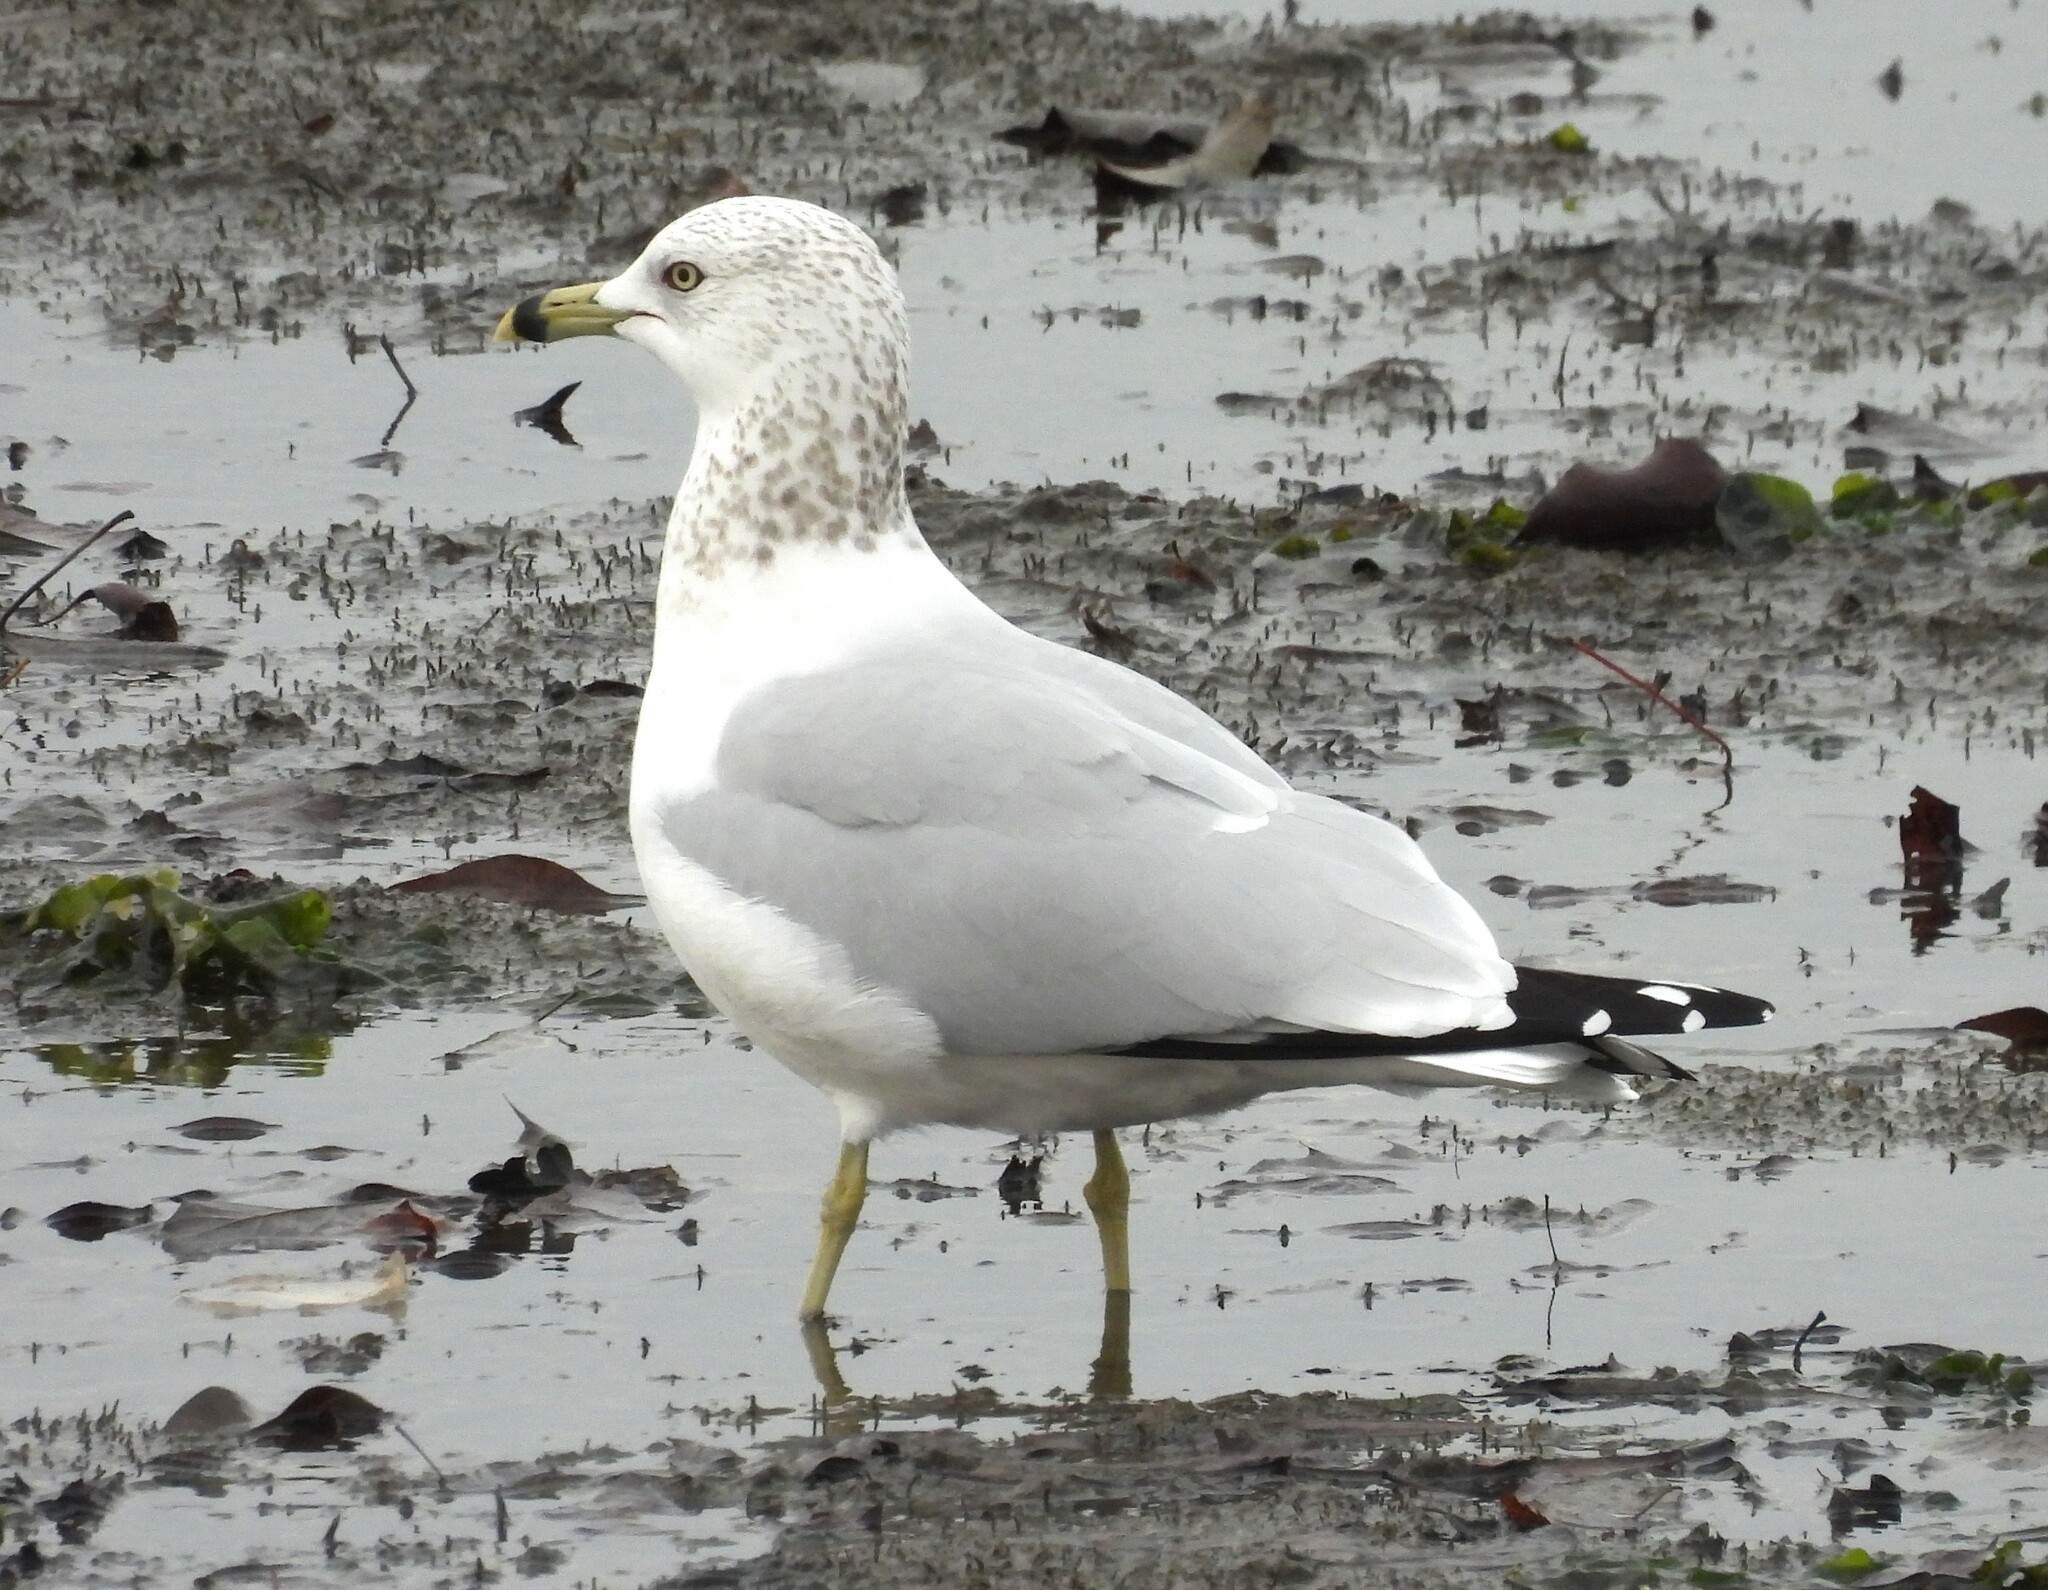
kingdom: Animalia
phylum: Chordata
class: Aves
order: Charadriiformes
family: Laridae
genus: Larus
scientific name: Larus delawarensis
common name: Ring-billed gull
